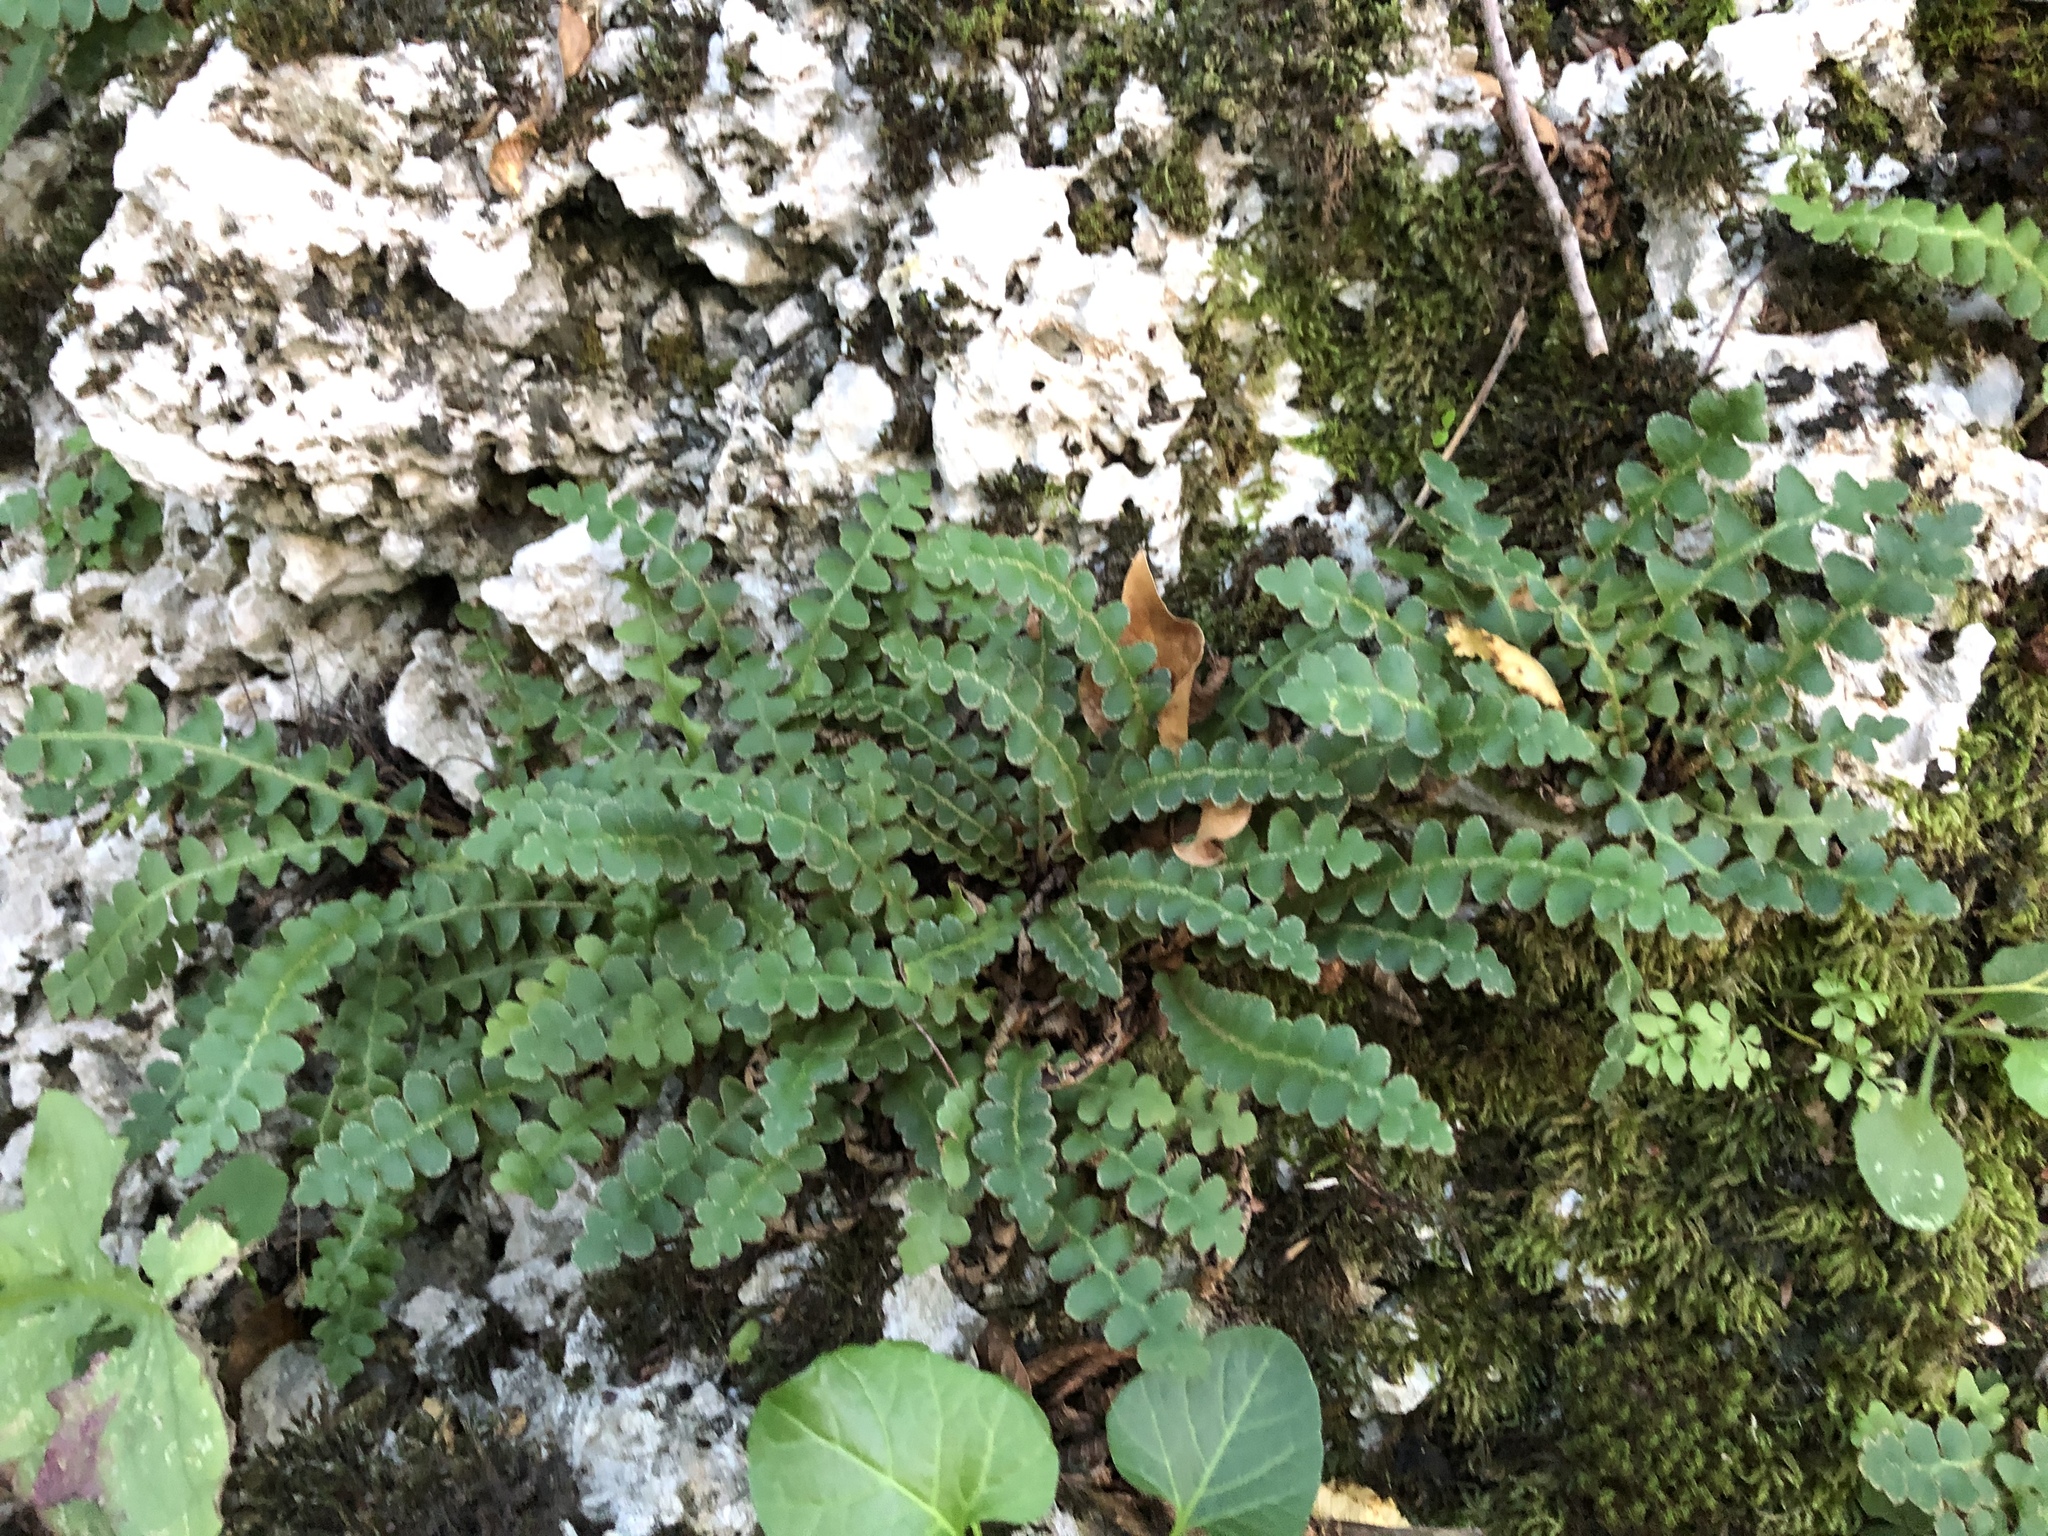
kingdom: Plantae
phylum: Tracheophyta
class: Polypodiopsida
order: Polypodiales
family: Aspleniaceae
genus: Asplenium
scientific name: Asplenium ceterach
